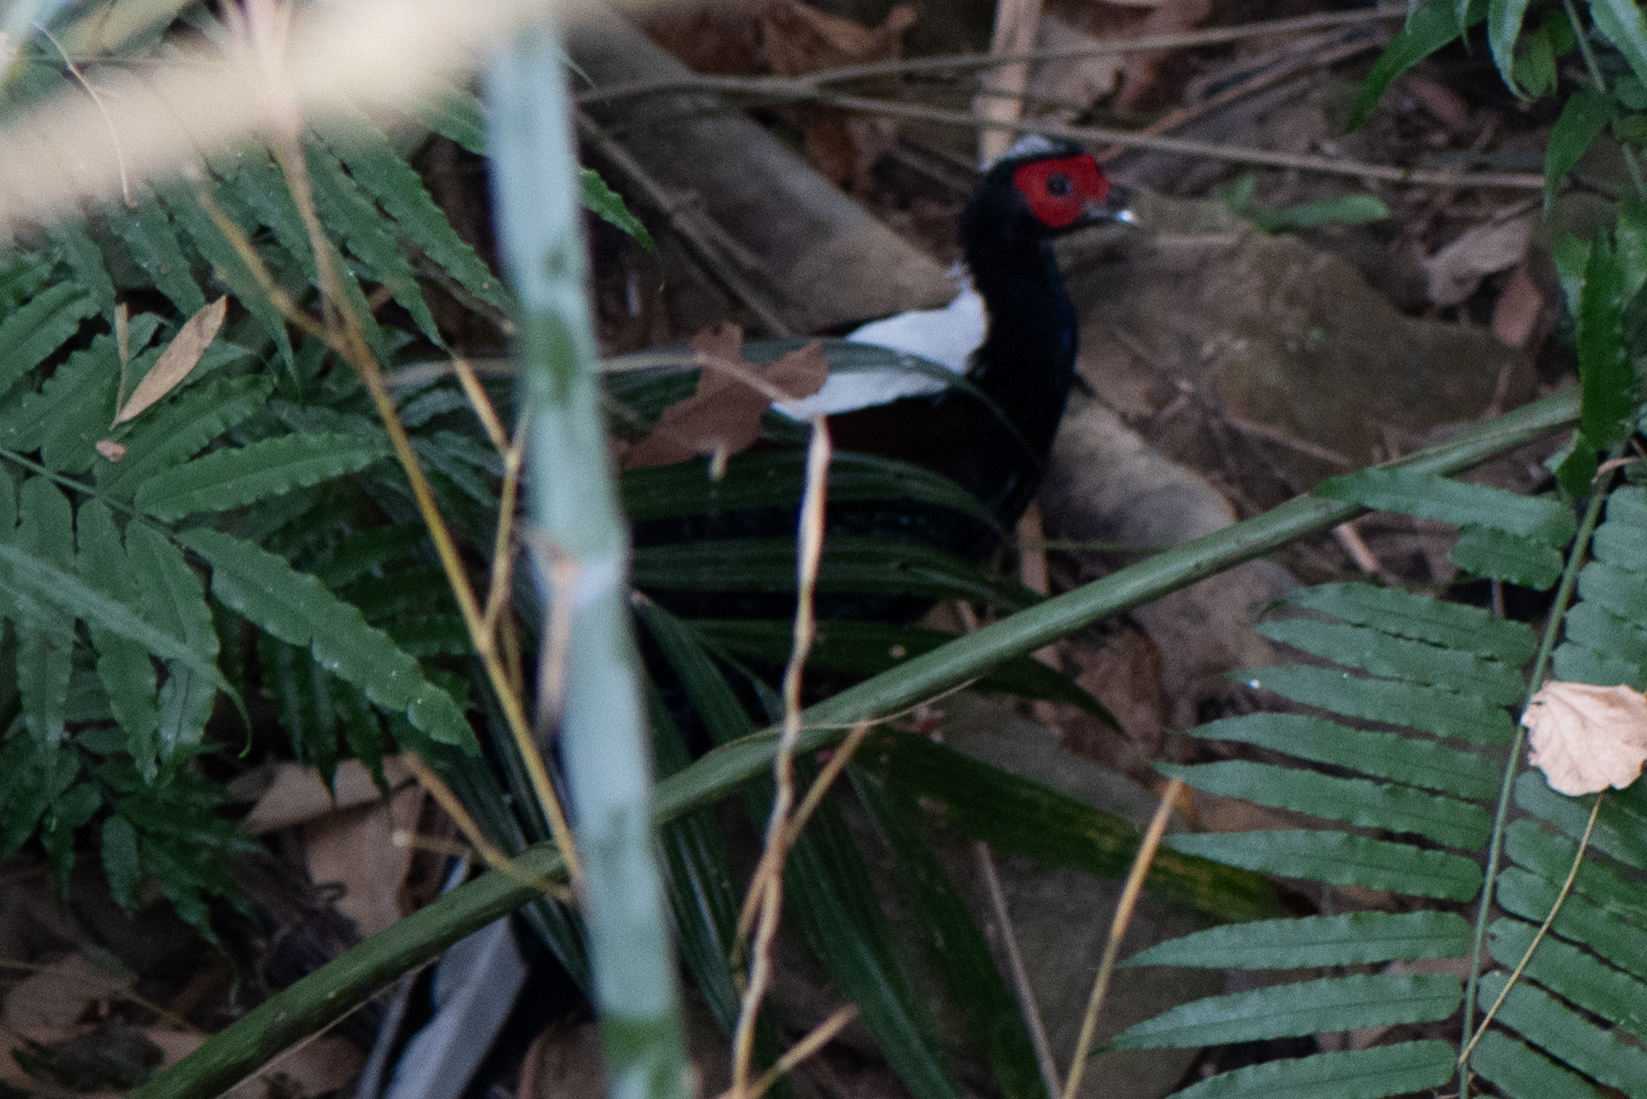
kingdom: Animalia
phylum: Chordata
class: Aves
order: Galliformes
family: Phasianidae
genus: Lophura
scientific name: Lophura swinhoii
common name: Swinhoe's pheasant
